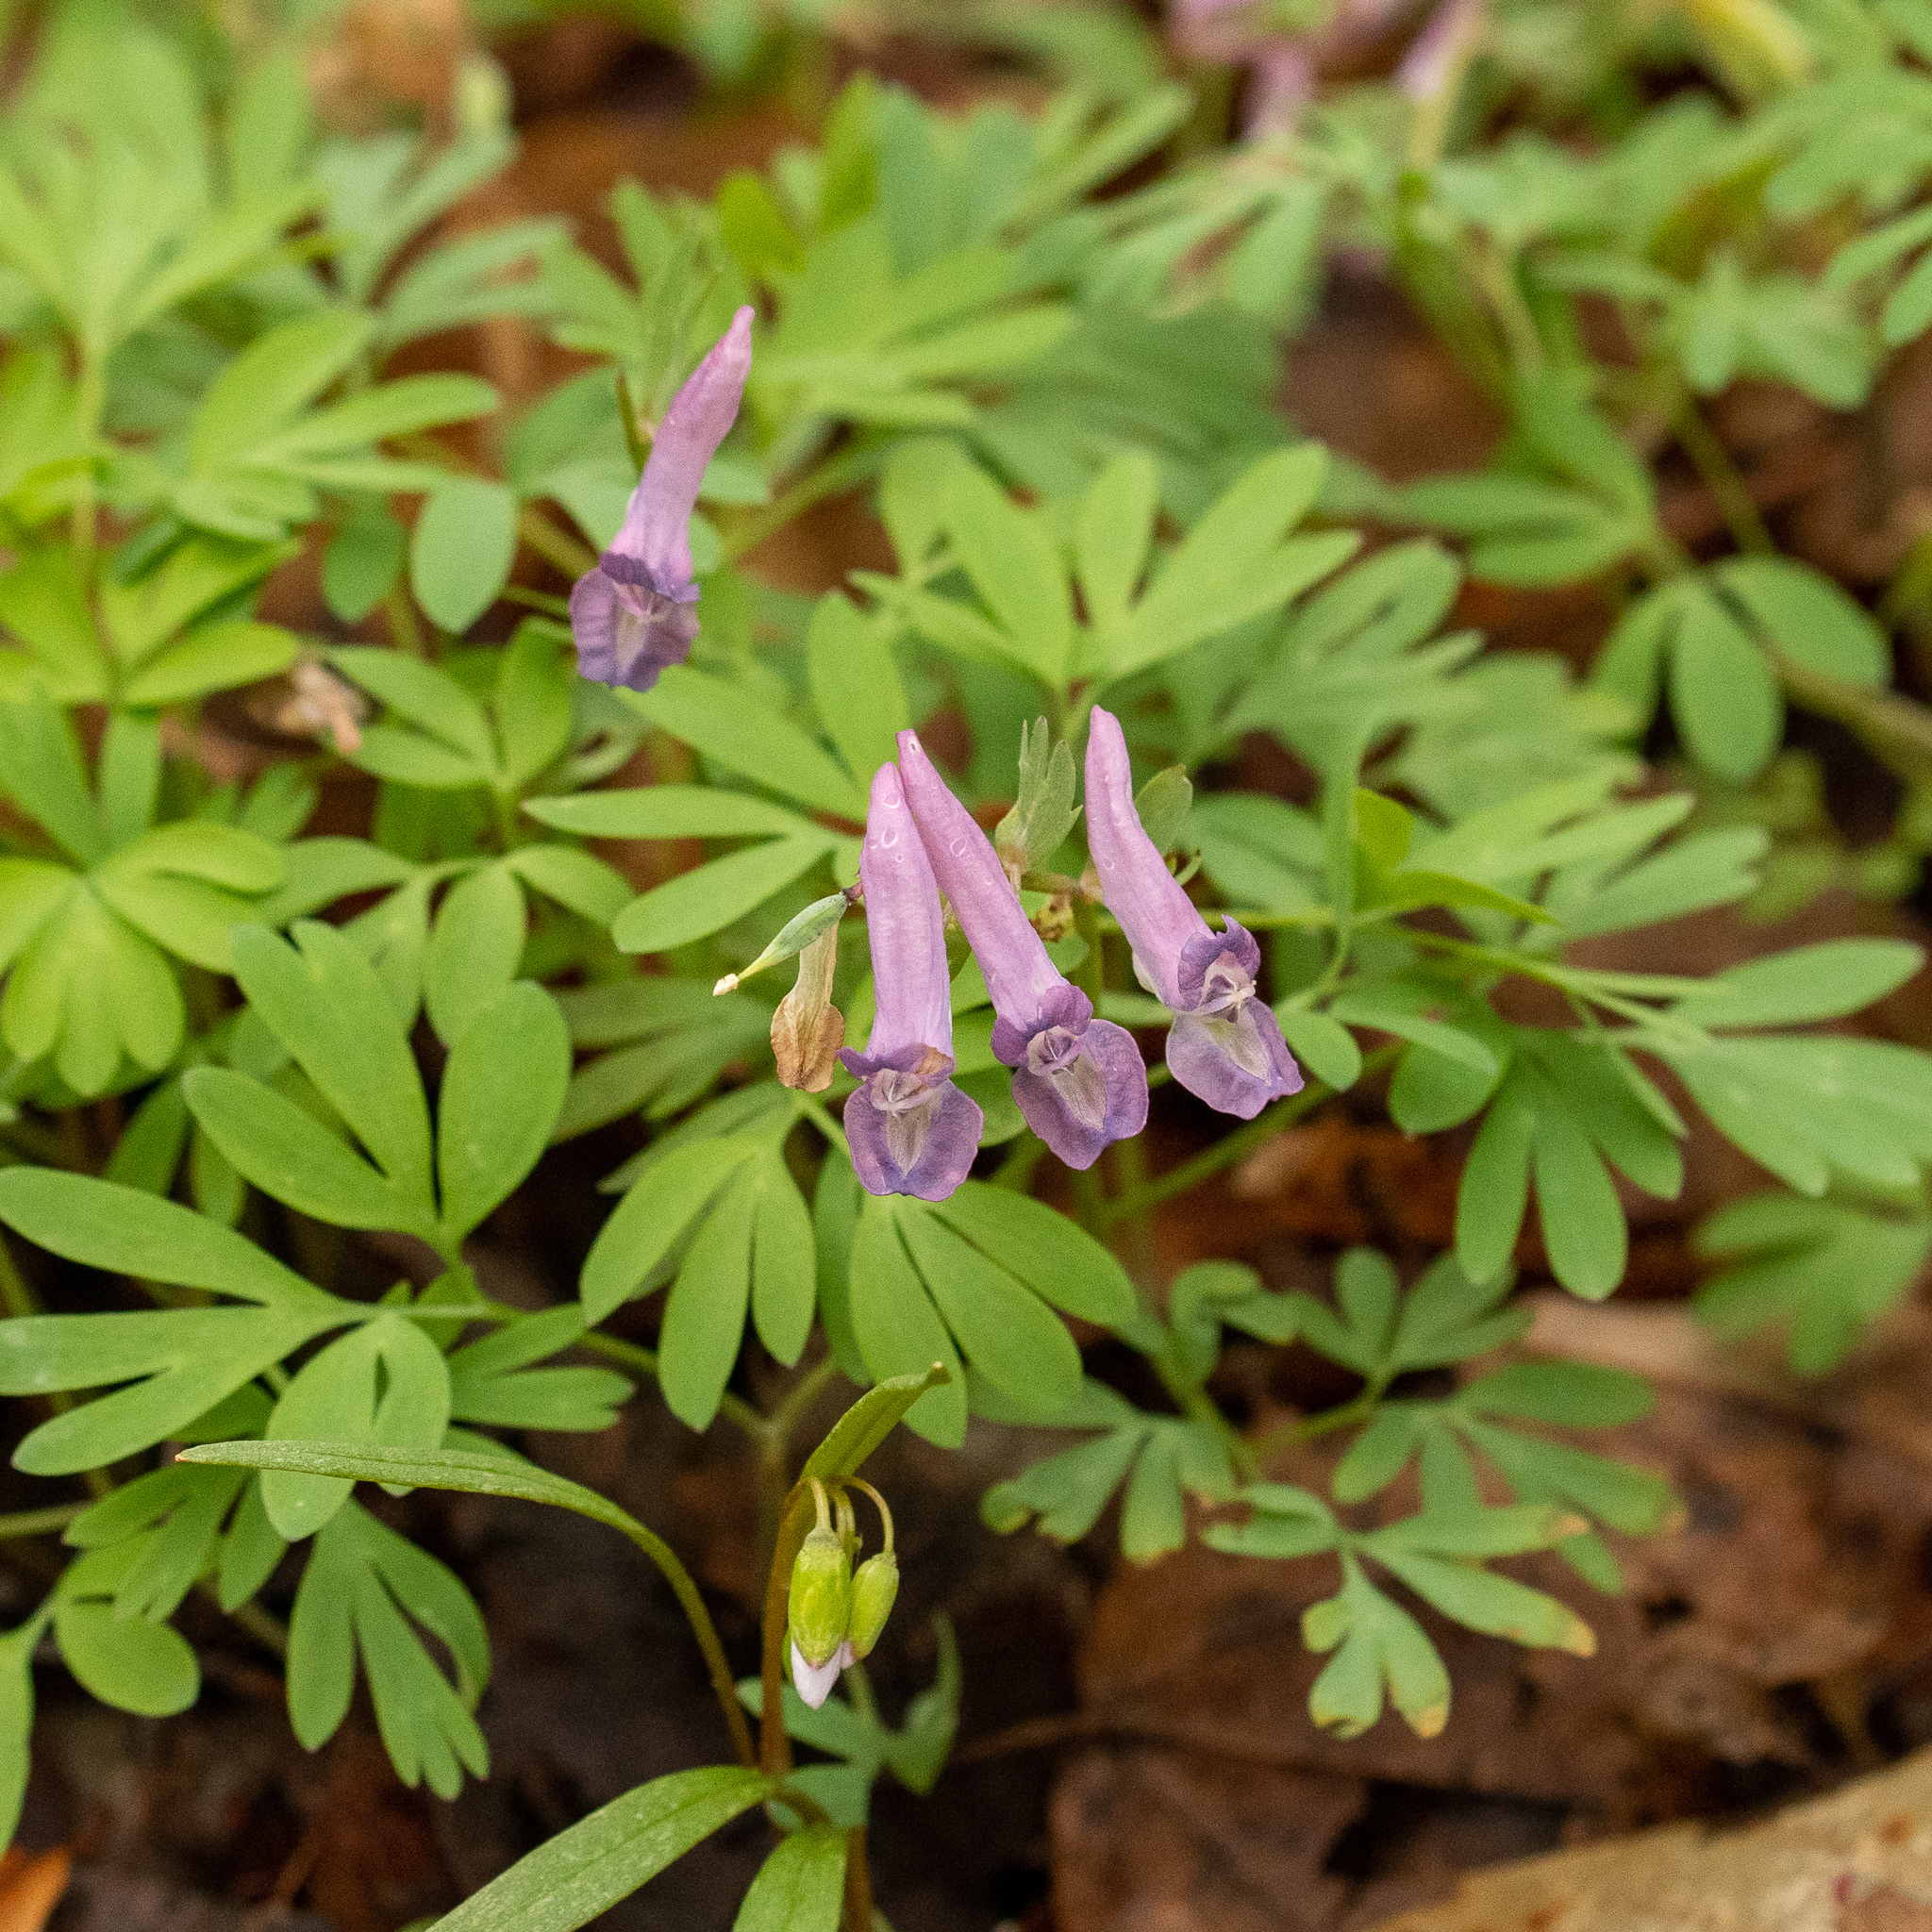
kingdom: Plantae
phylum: Tracheophyta
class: Magnoliopsida
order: Ranunculales
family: Papaveraceae
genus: Corydalis
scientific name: Corydalis solida
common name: Bird-in-a-bush
